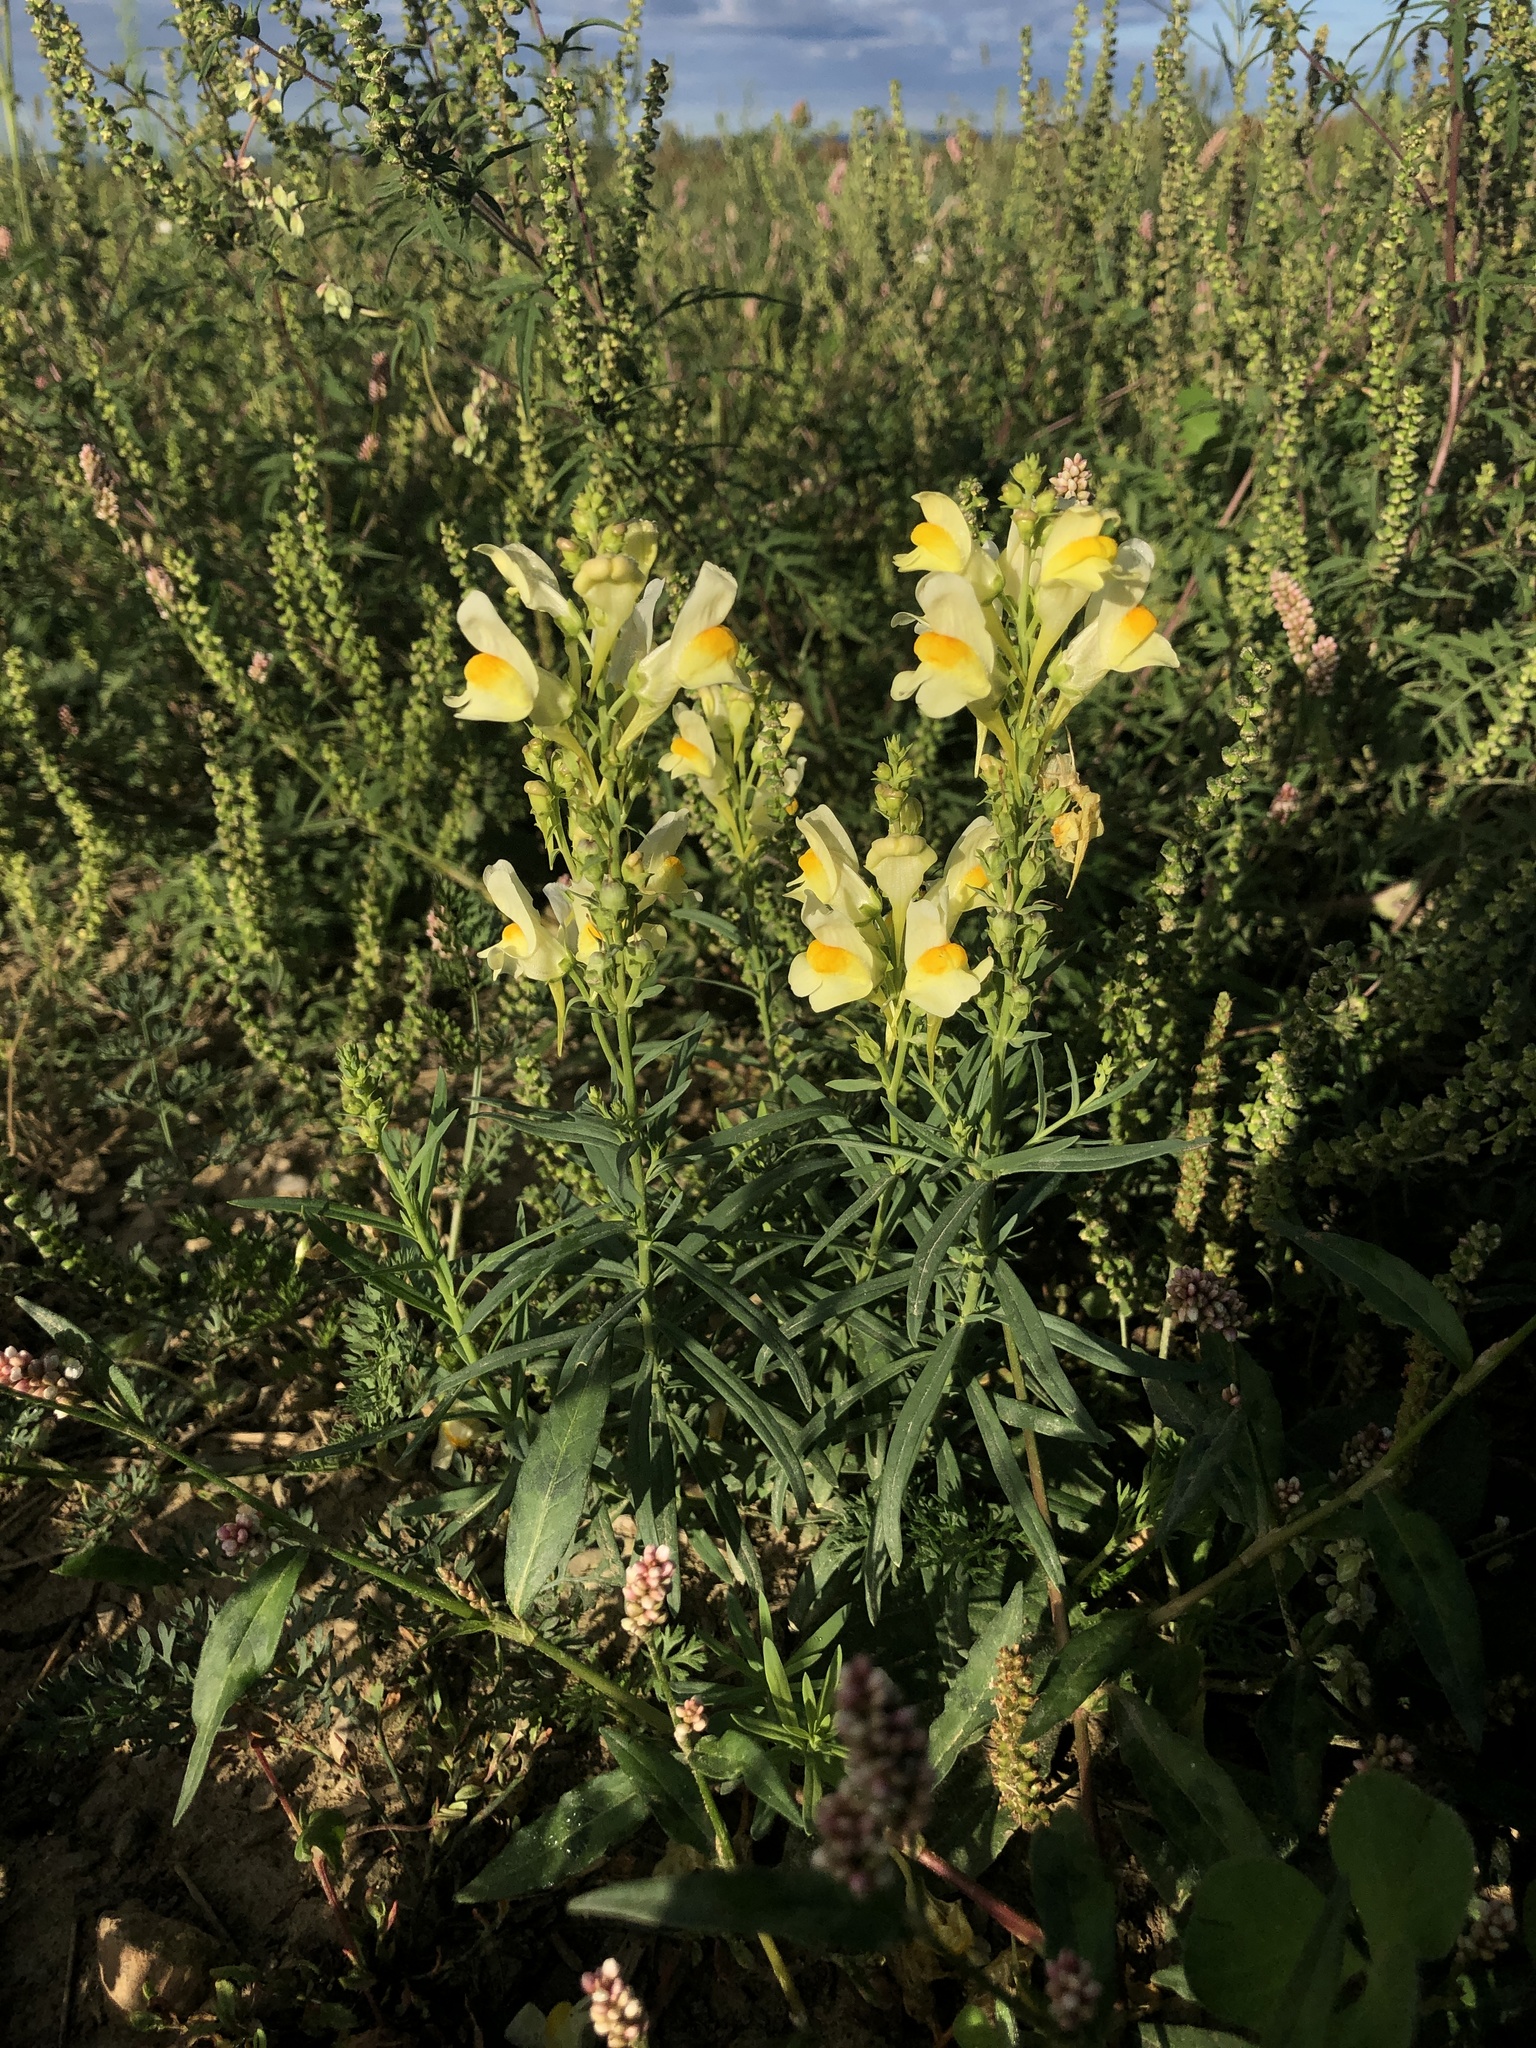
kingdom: Plantae
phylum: Tracheophyta
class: Magnoliopsida
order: Lamiales
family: Plantaginaceae
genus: Linaria
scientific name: Linaria vulgaris
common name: Butter and eggs
